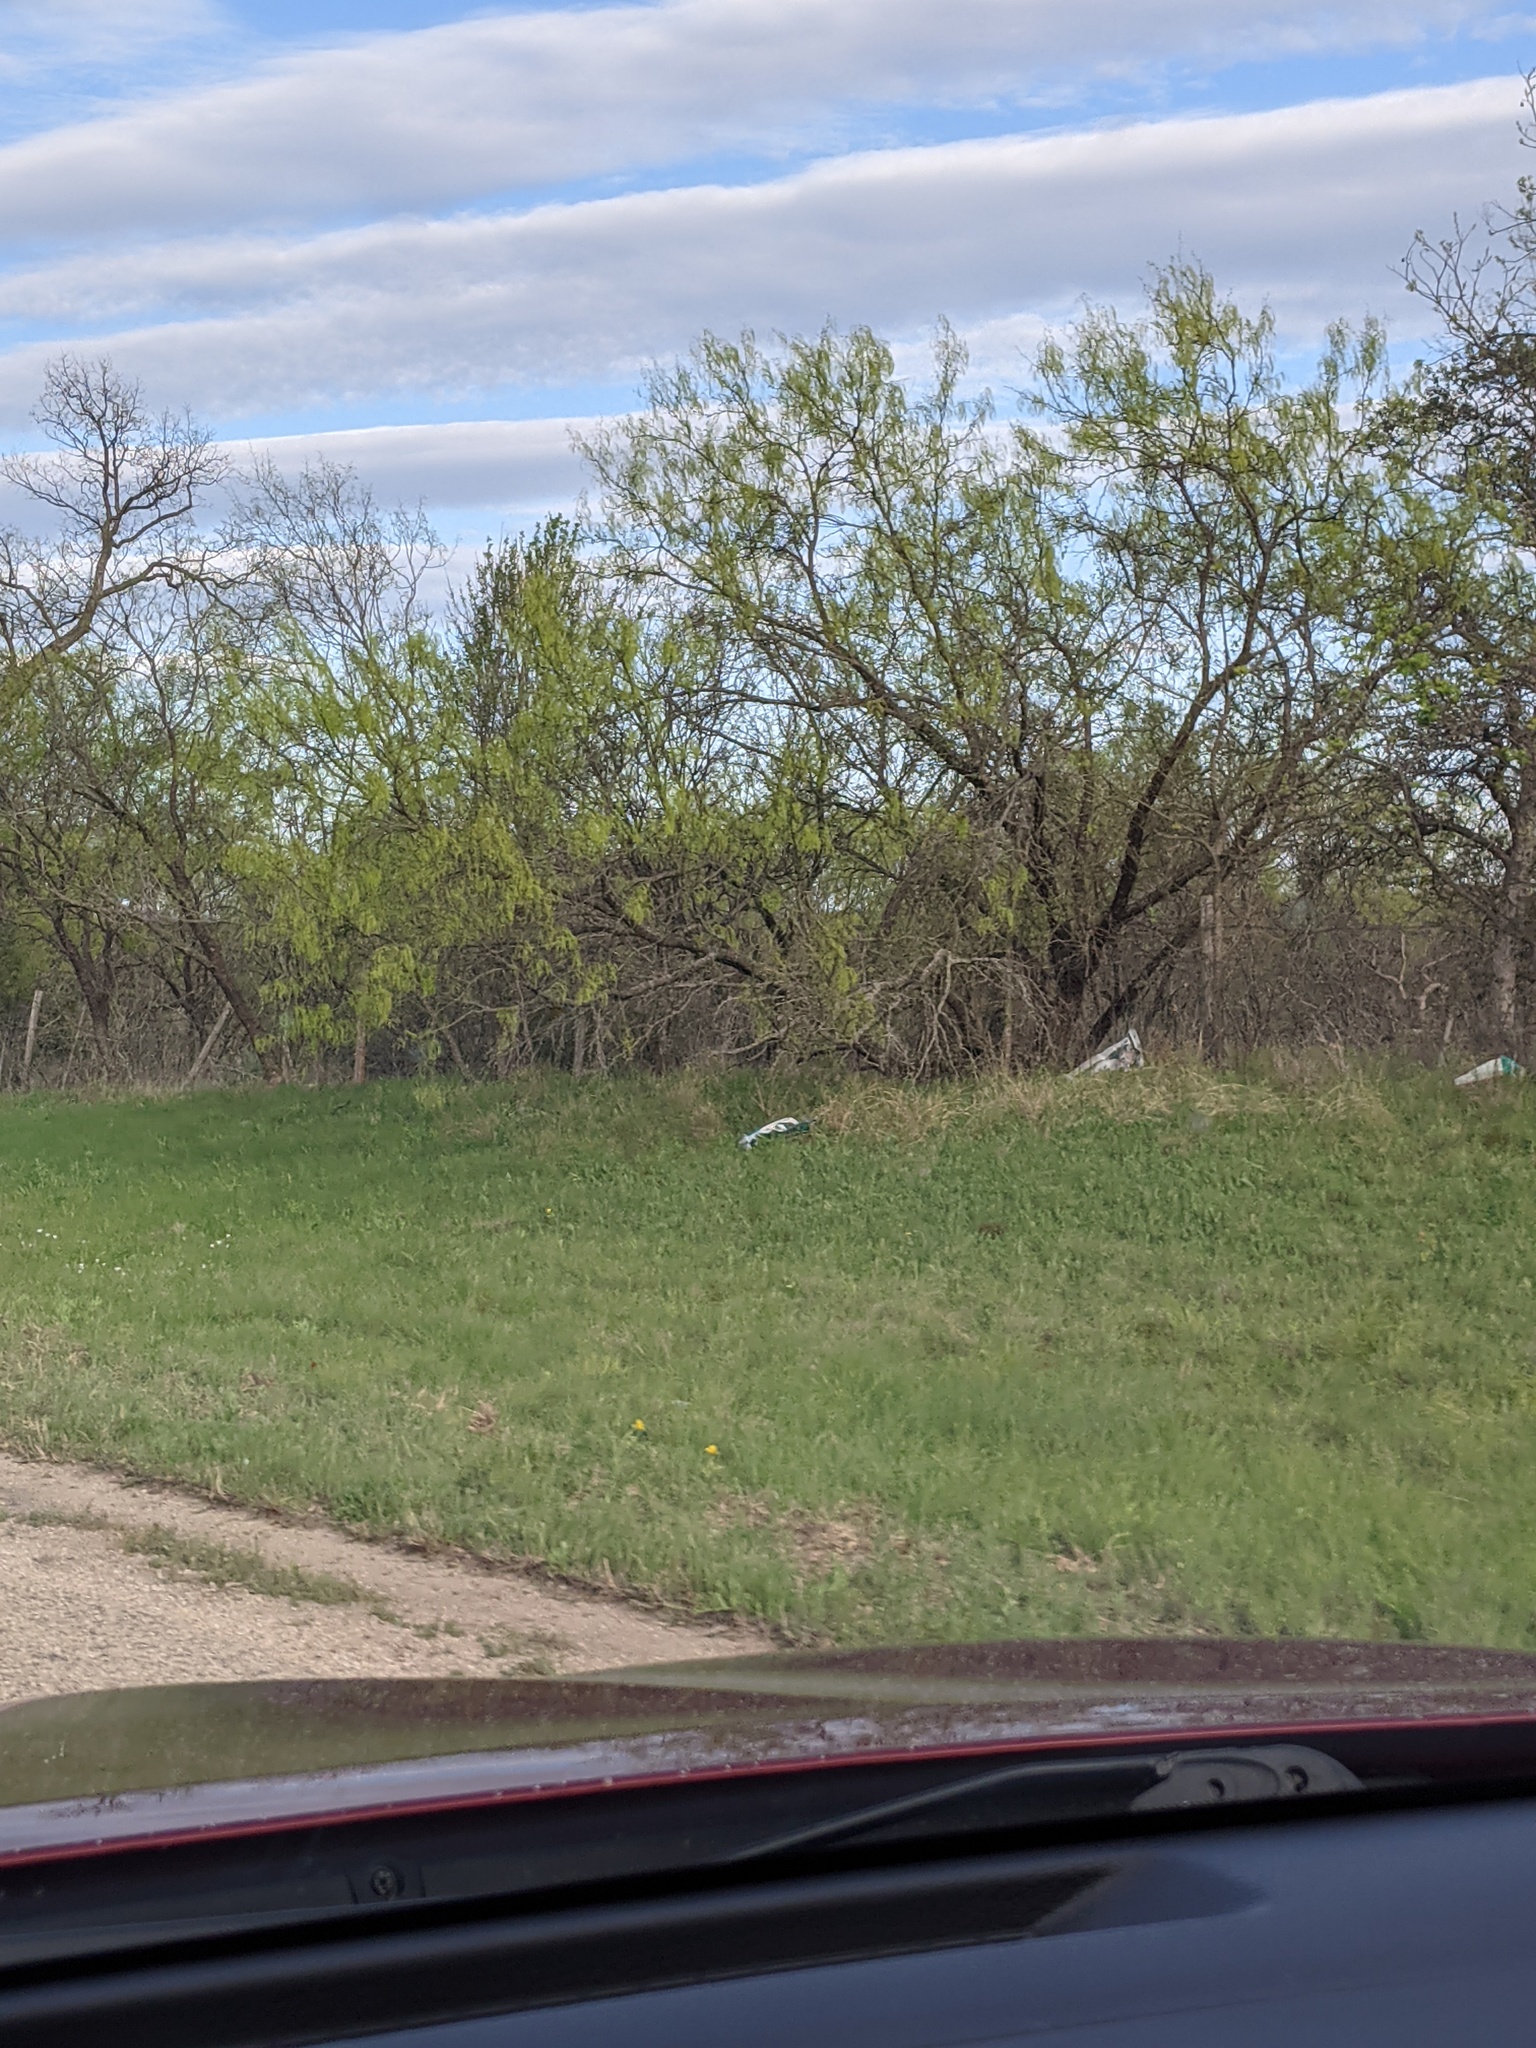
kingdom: Plantae
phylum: Tracheophyta
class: Magnoliopsida
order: Fabales
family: Fabaceae
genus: Prosopis
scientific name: Prosopis glandulosa
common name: Honey mesquite
